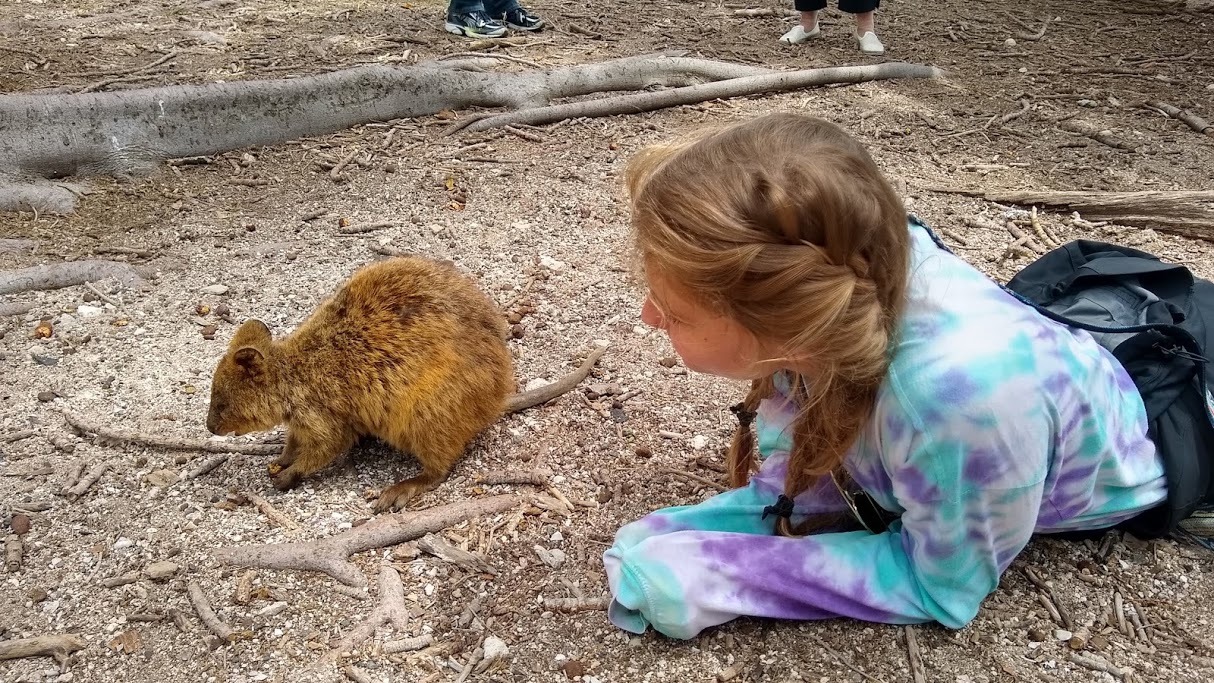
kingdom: Animalia
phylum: Chordata
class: Mammalia
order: Diprotodontia
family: Macropodidae
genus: Setonix
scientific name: Setonix brachyurus
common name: Quokka
